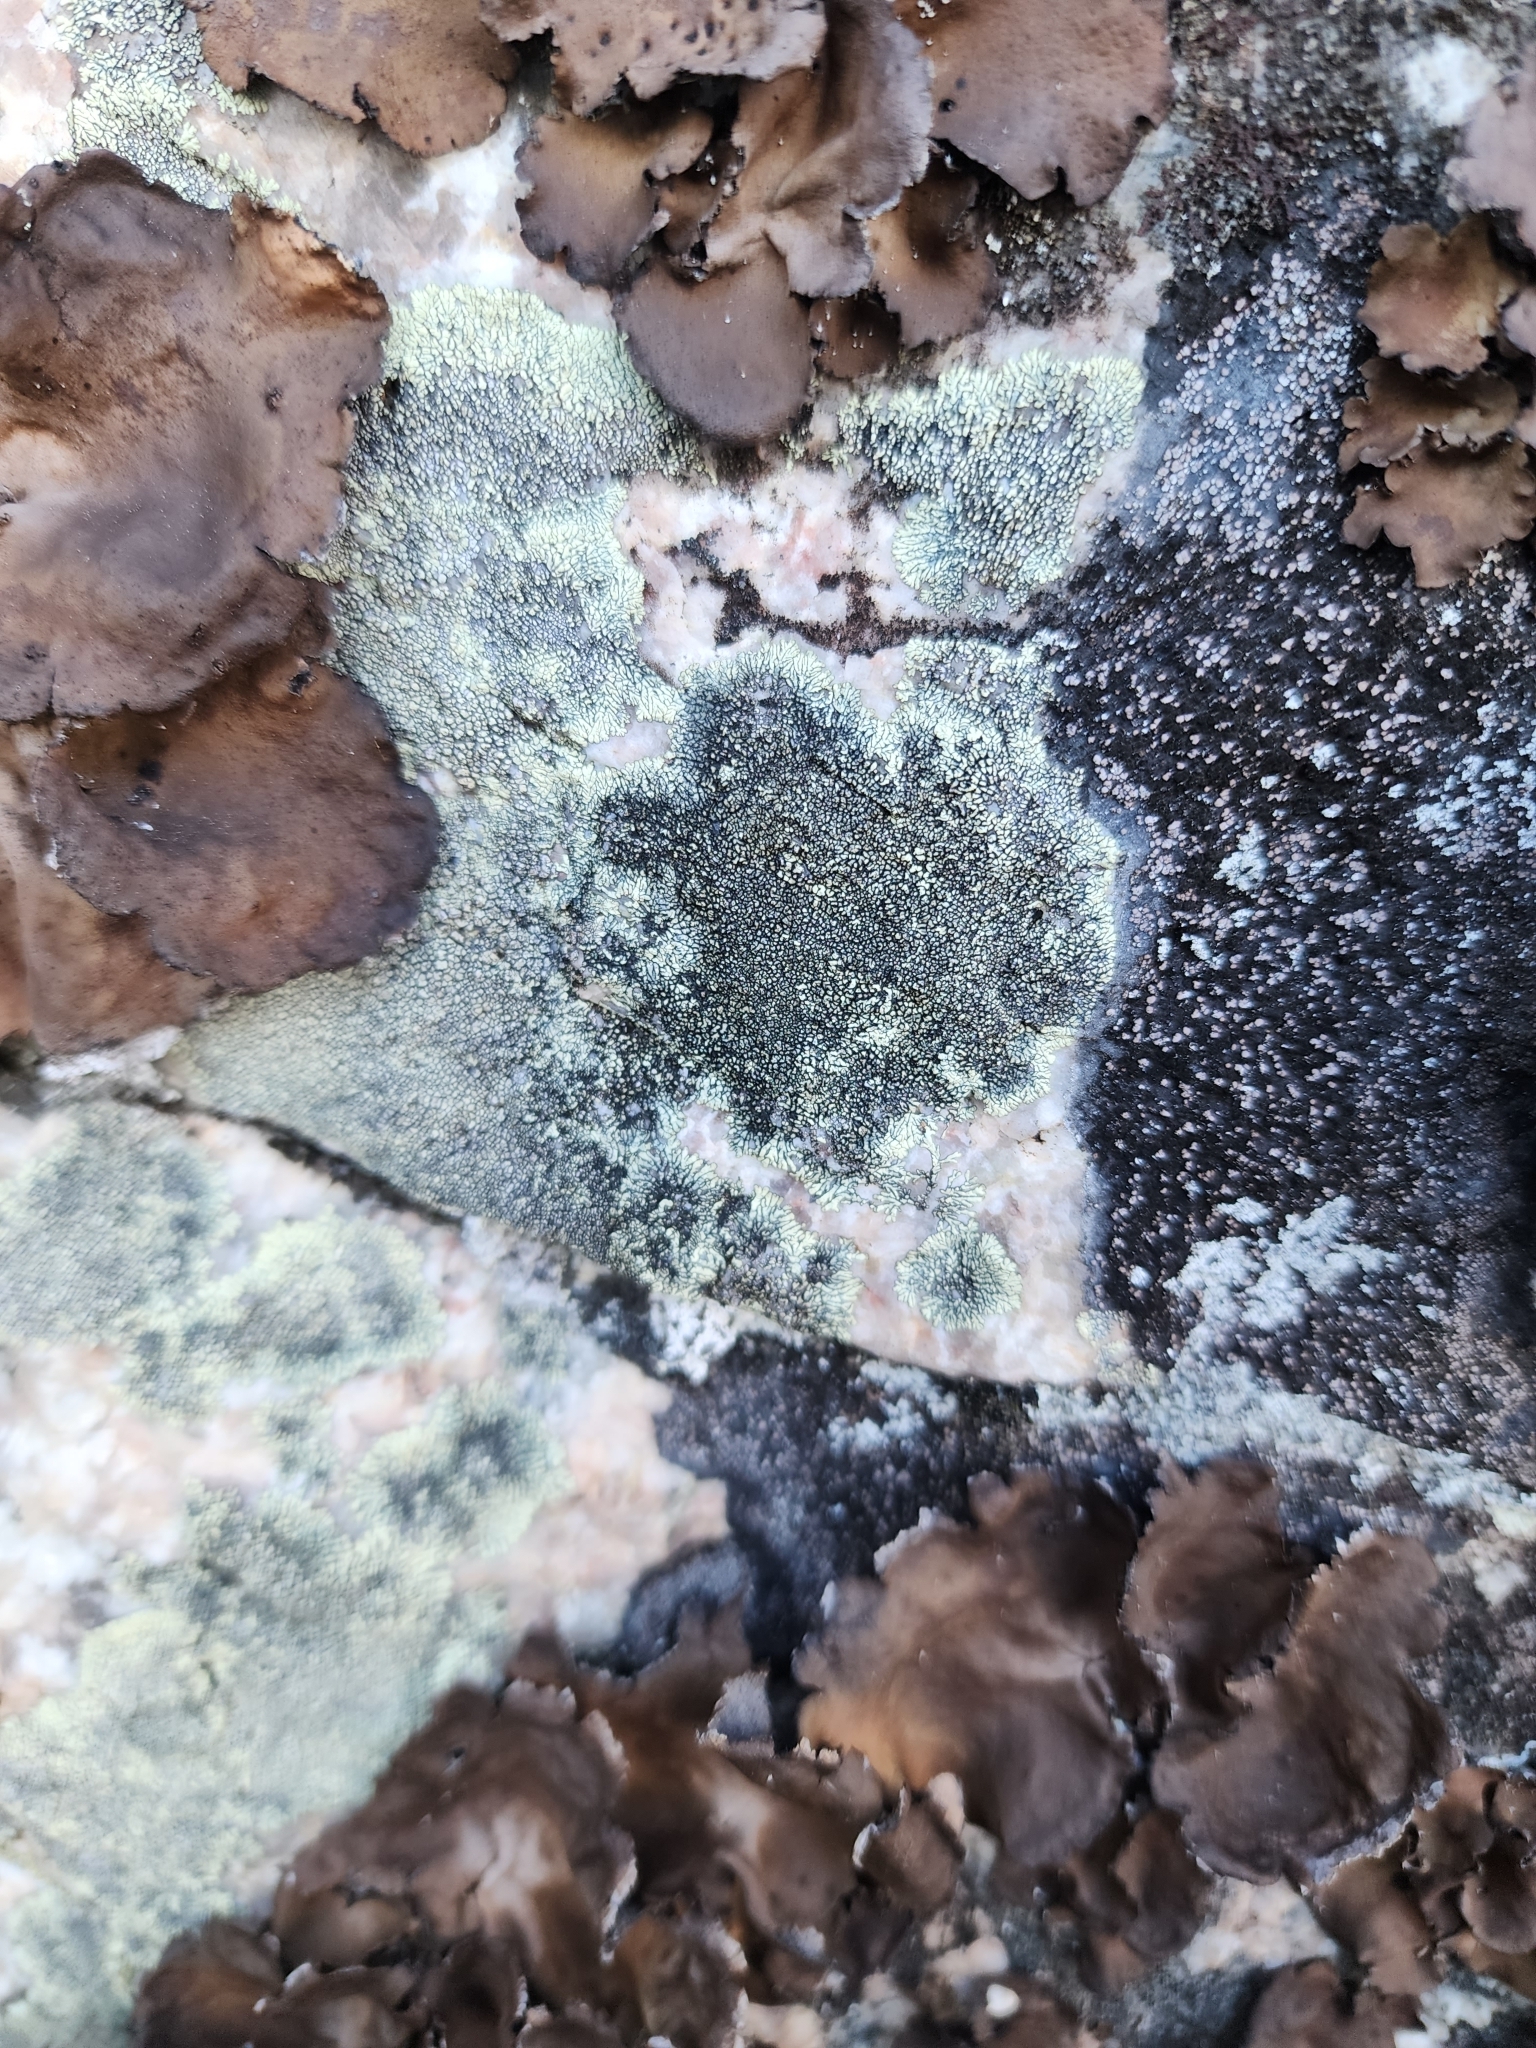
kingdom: Fungi
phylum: Ascomycota
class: Lecanoromycetes
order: Caliciales
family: Caliciaceae
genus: Dimelaena
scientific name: Dimelaena oreina
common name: Golden moonglow lichen
